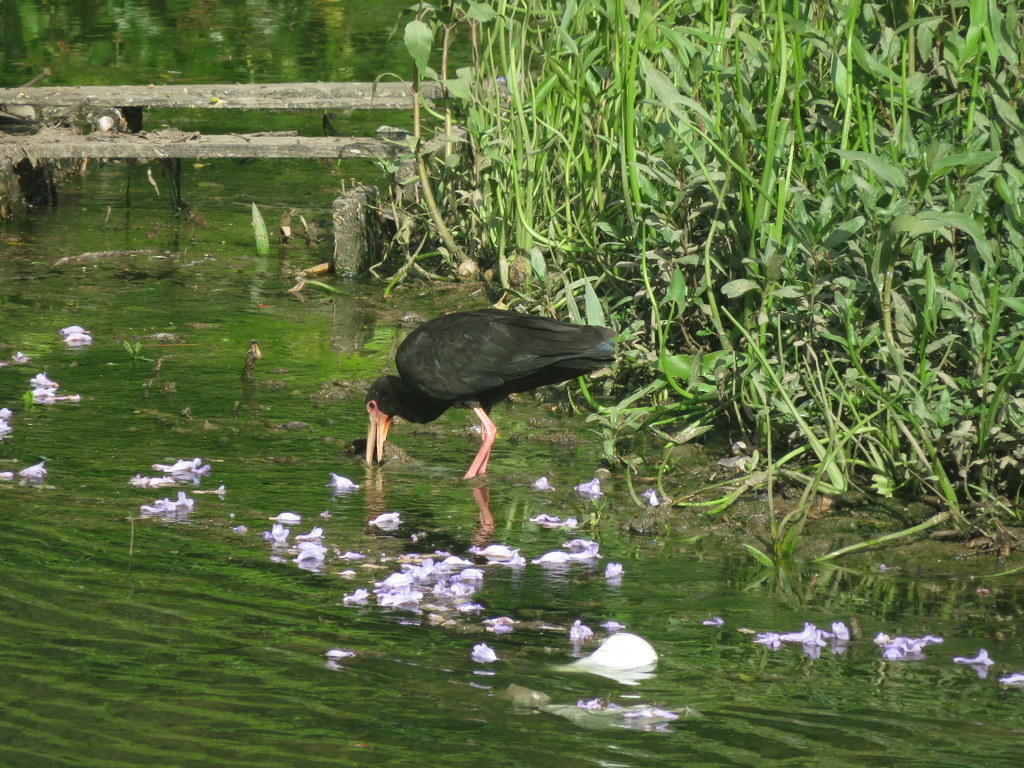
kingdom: Animalia
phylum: Chordata
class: Aves
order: Pelecaniformes
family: Threskiornithidae
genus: Phimosus
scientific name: Phimosus infuscatus
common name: Bare-faced ibis
